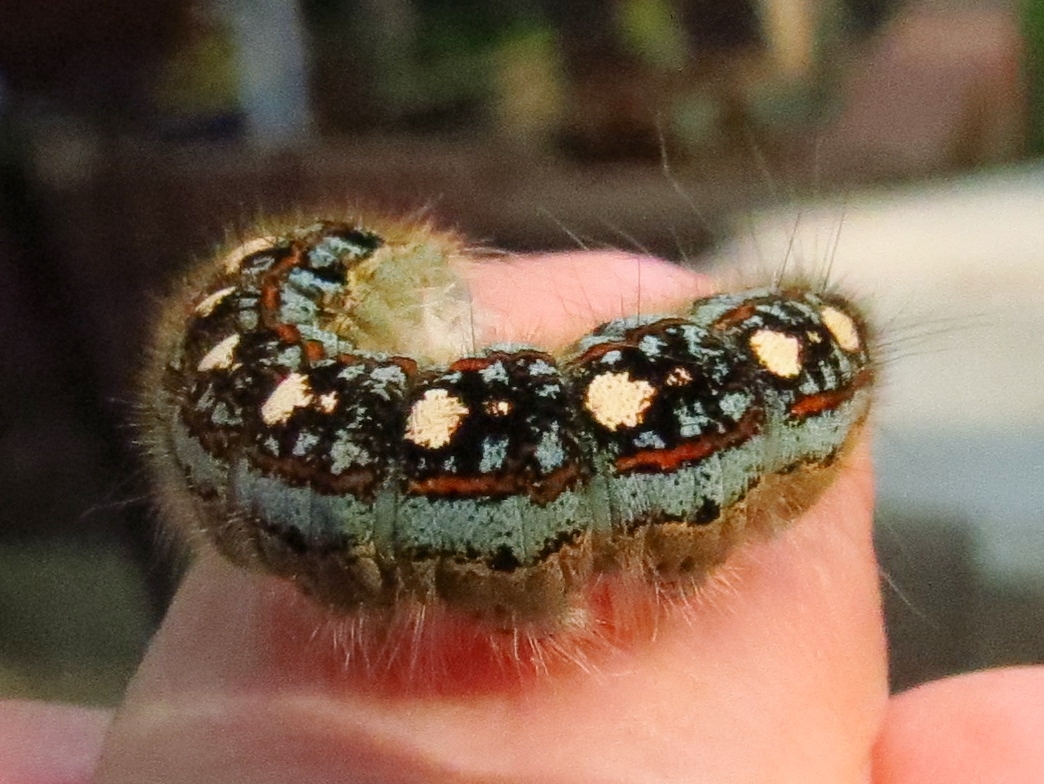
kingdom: Animalia
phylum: Arthropoda
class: Insecta
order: Lepidoptera
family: Lasiocampidae
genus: Malacosoma
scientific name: Malacosoma disstria
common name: Forest tent caterpillar
